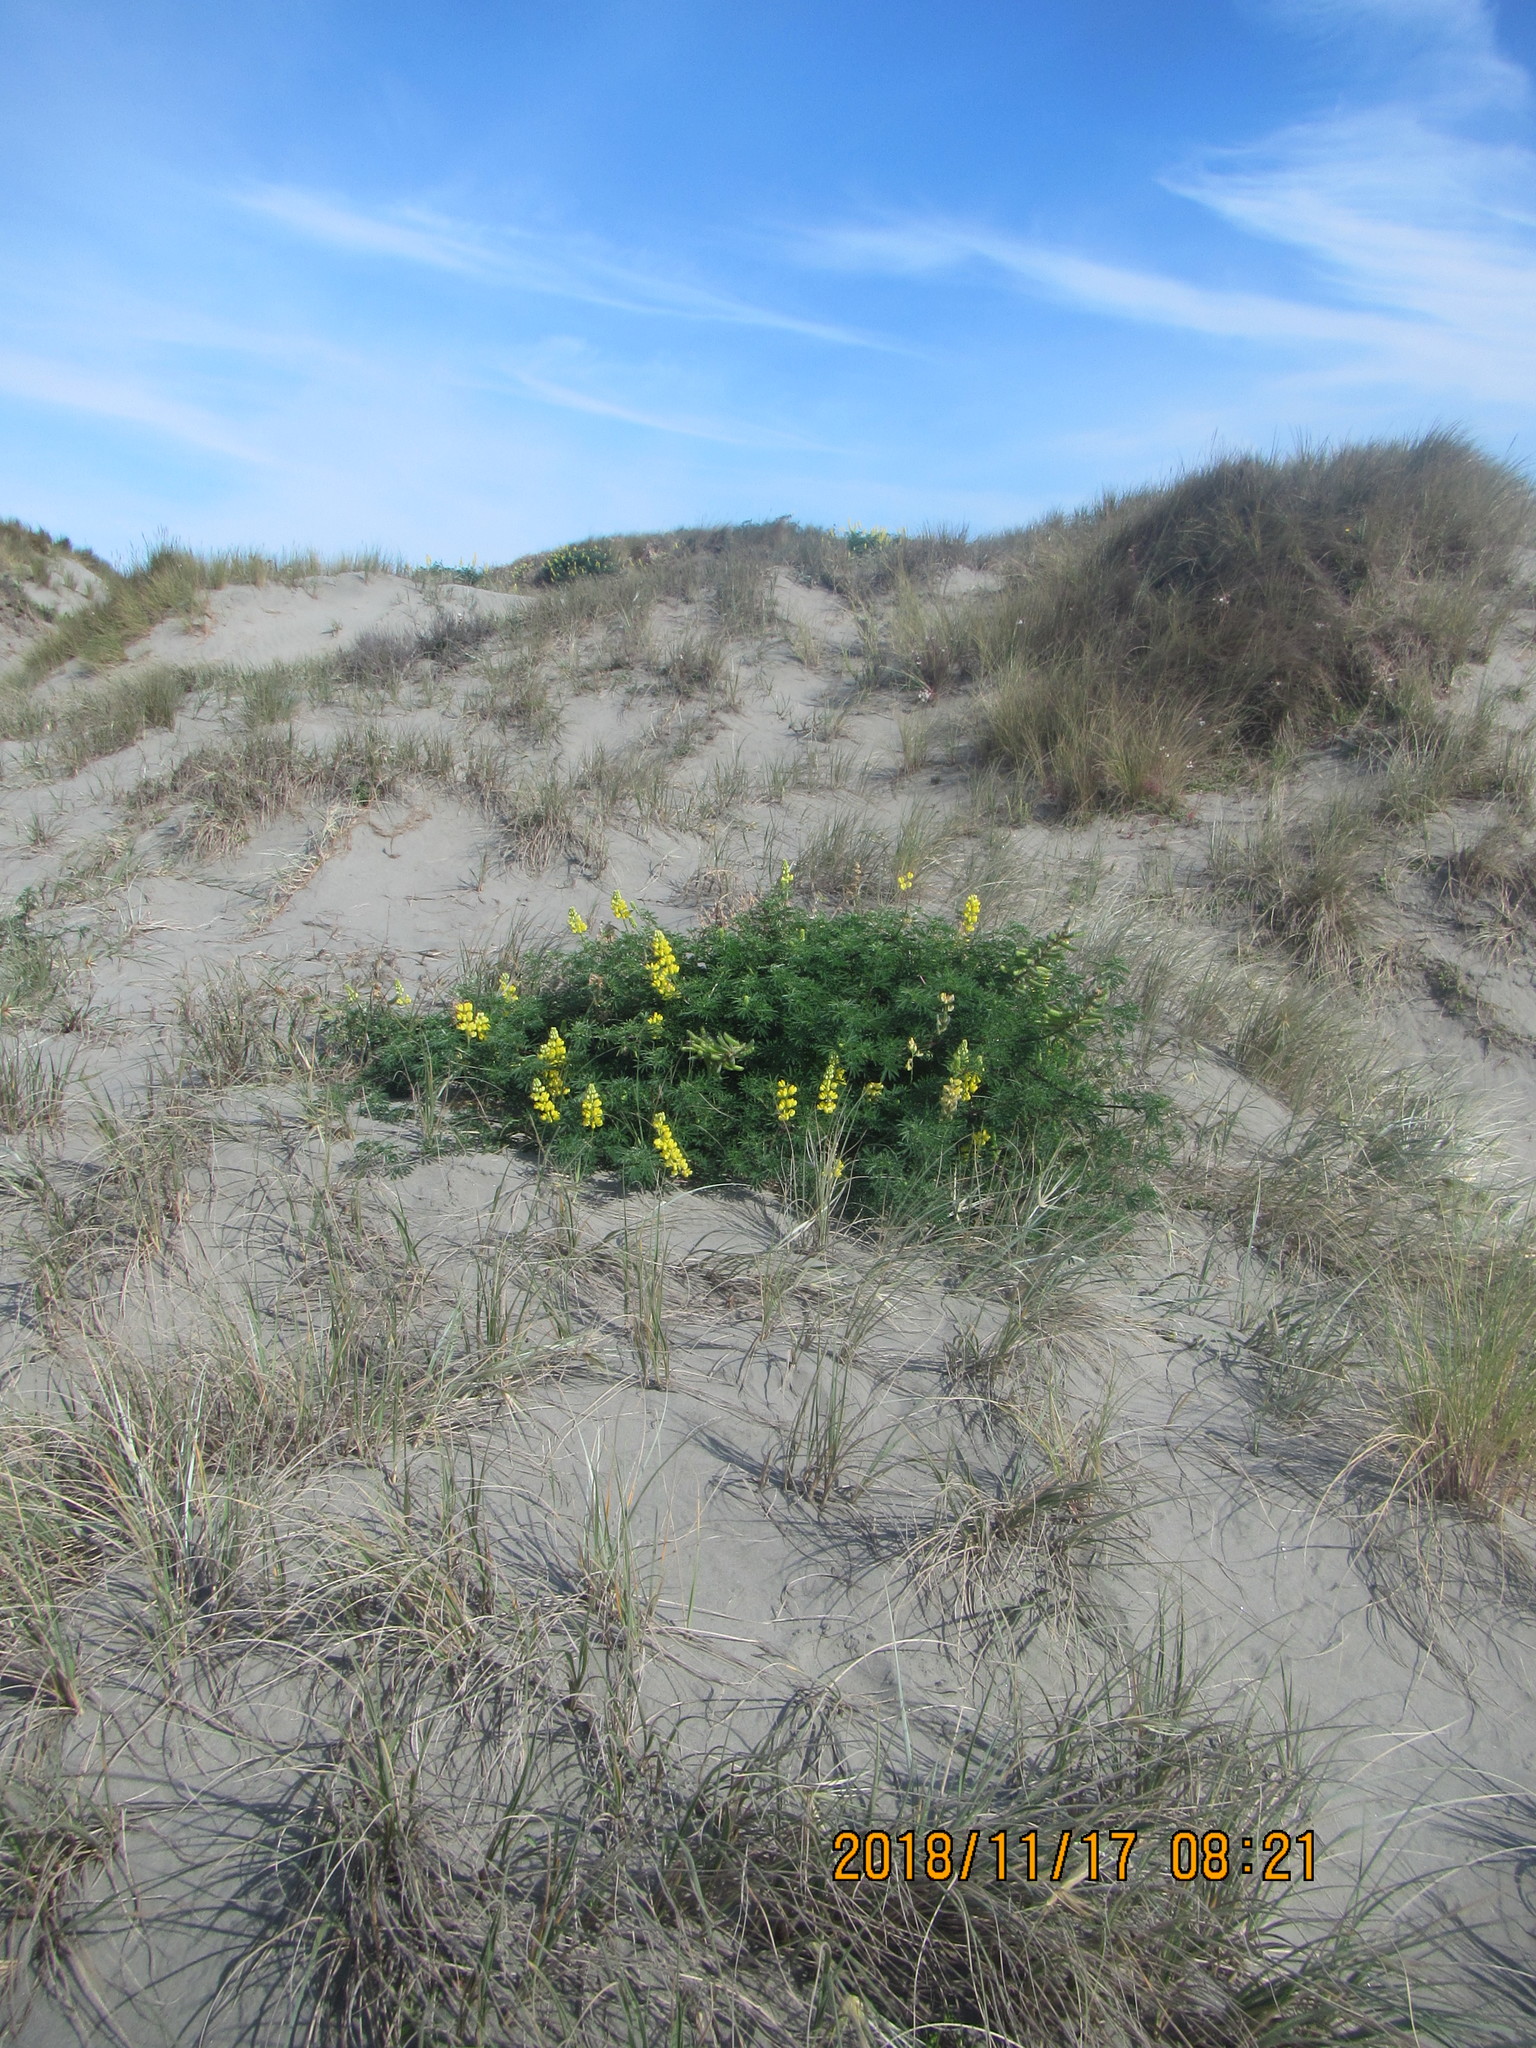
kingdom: Plantae
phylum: Tracheophyta
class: Magnoliopsida
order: Fabales
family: Fabaceae
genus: Lupinus
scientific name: Lupinus arboreus
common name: Yellow bush lupine
